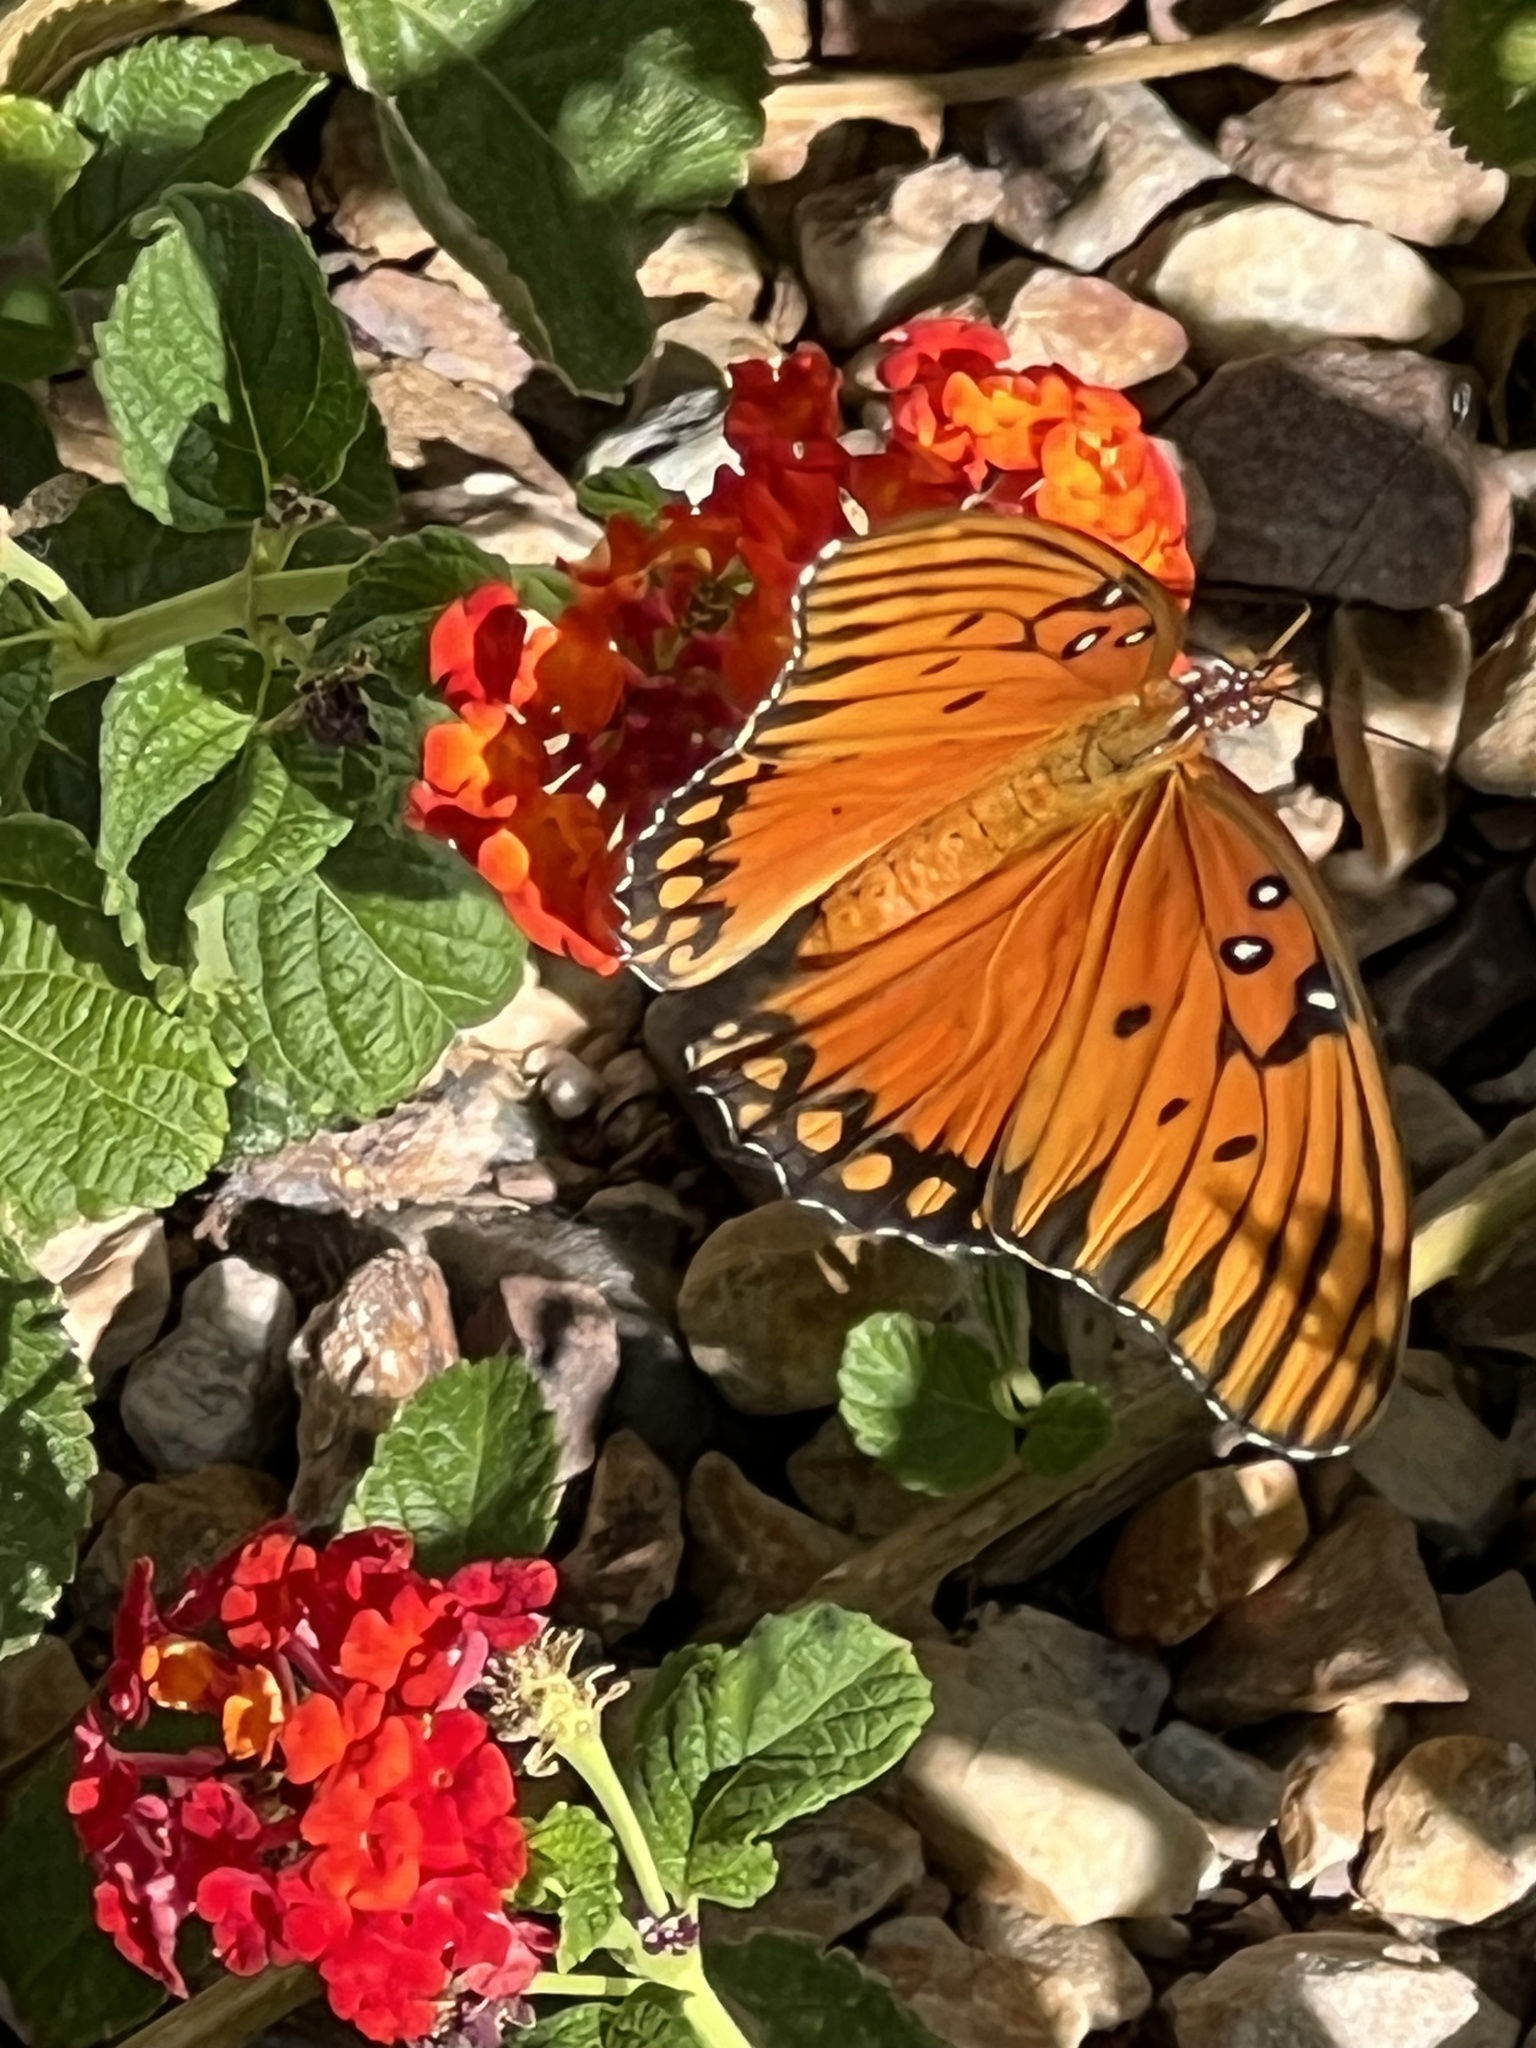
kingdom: Animalia
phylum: Arthropoda
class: Insecta
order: Lepidoptera
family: Nymphalidae
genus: Dione
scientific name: Dione vanillae
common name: Gulf fritillary
